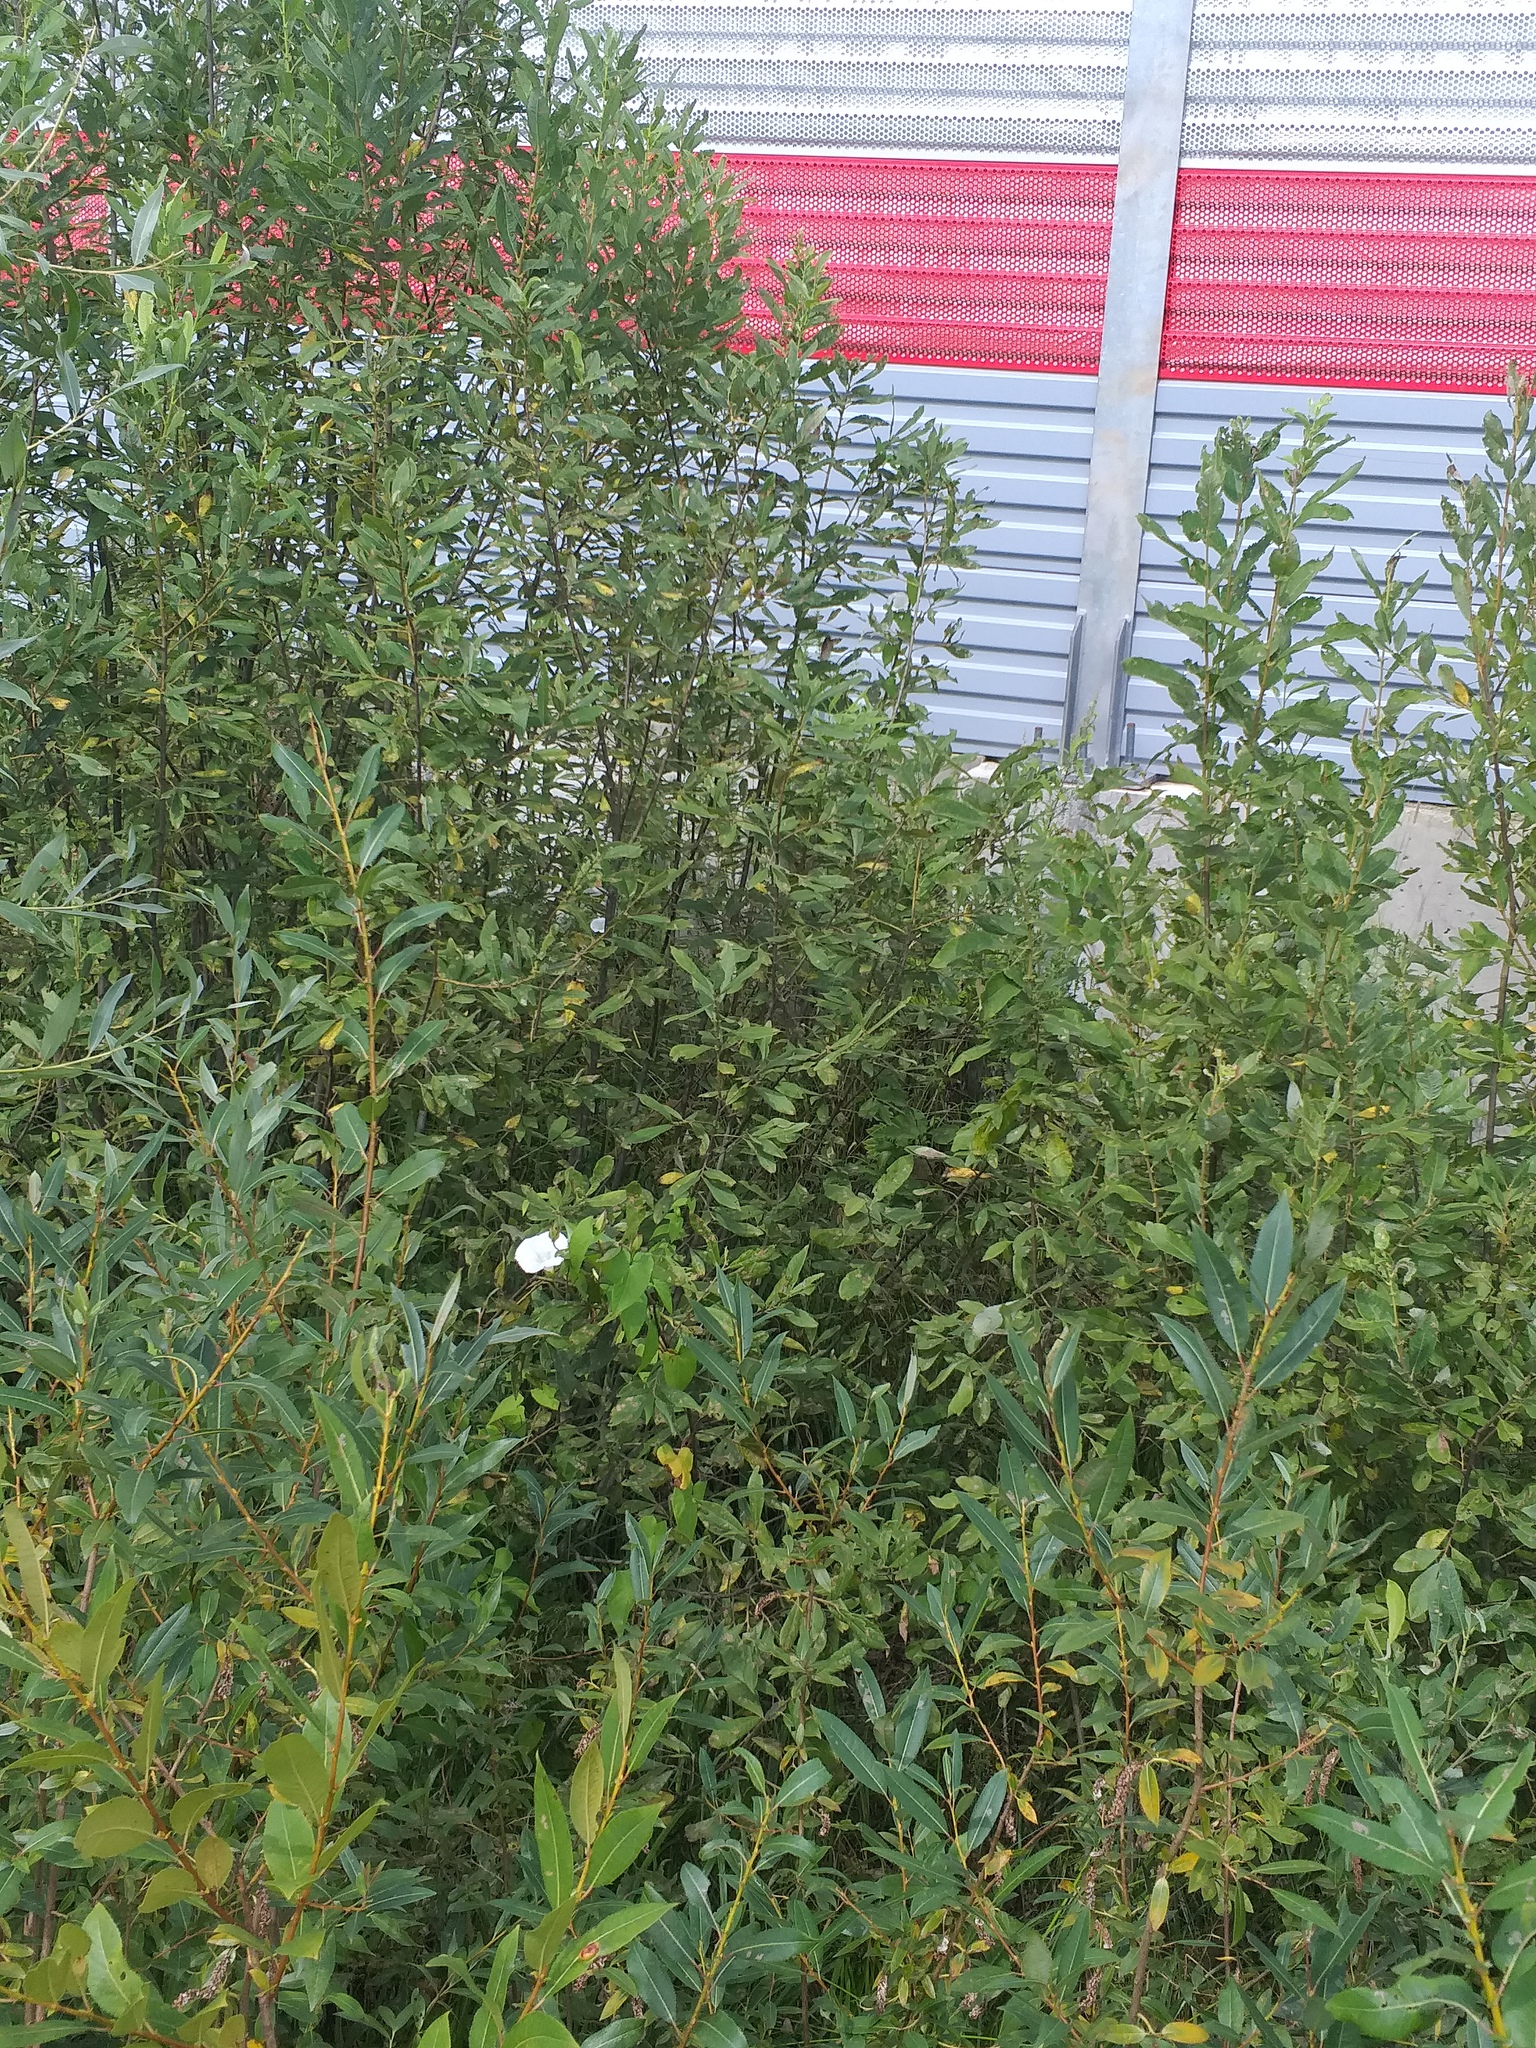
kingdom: Plantae
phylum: Tracheophyta
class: Magnoliopsida
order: Malpighiales
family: Salicaceae
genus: Salix
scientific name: Salix cinerea
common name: Common sallow
